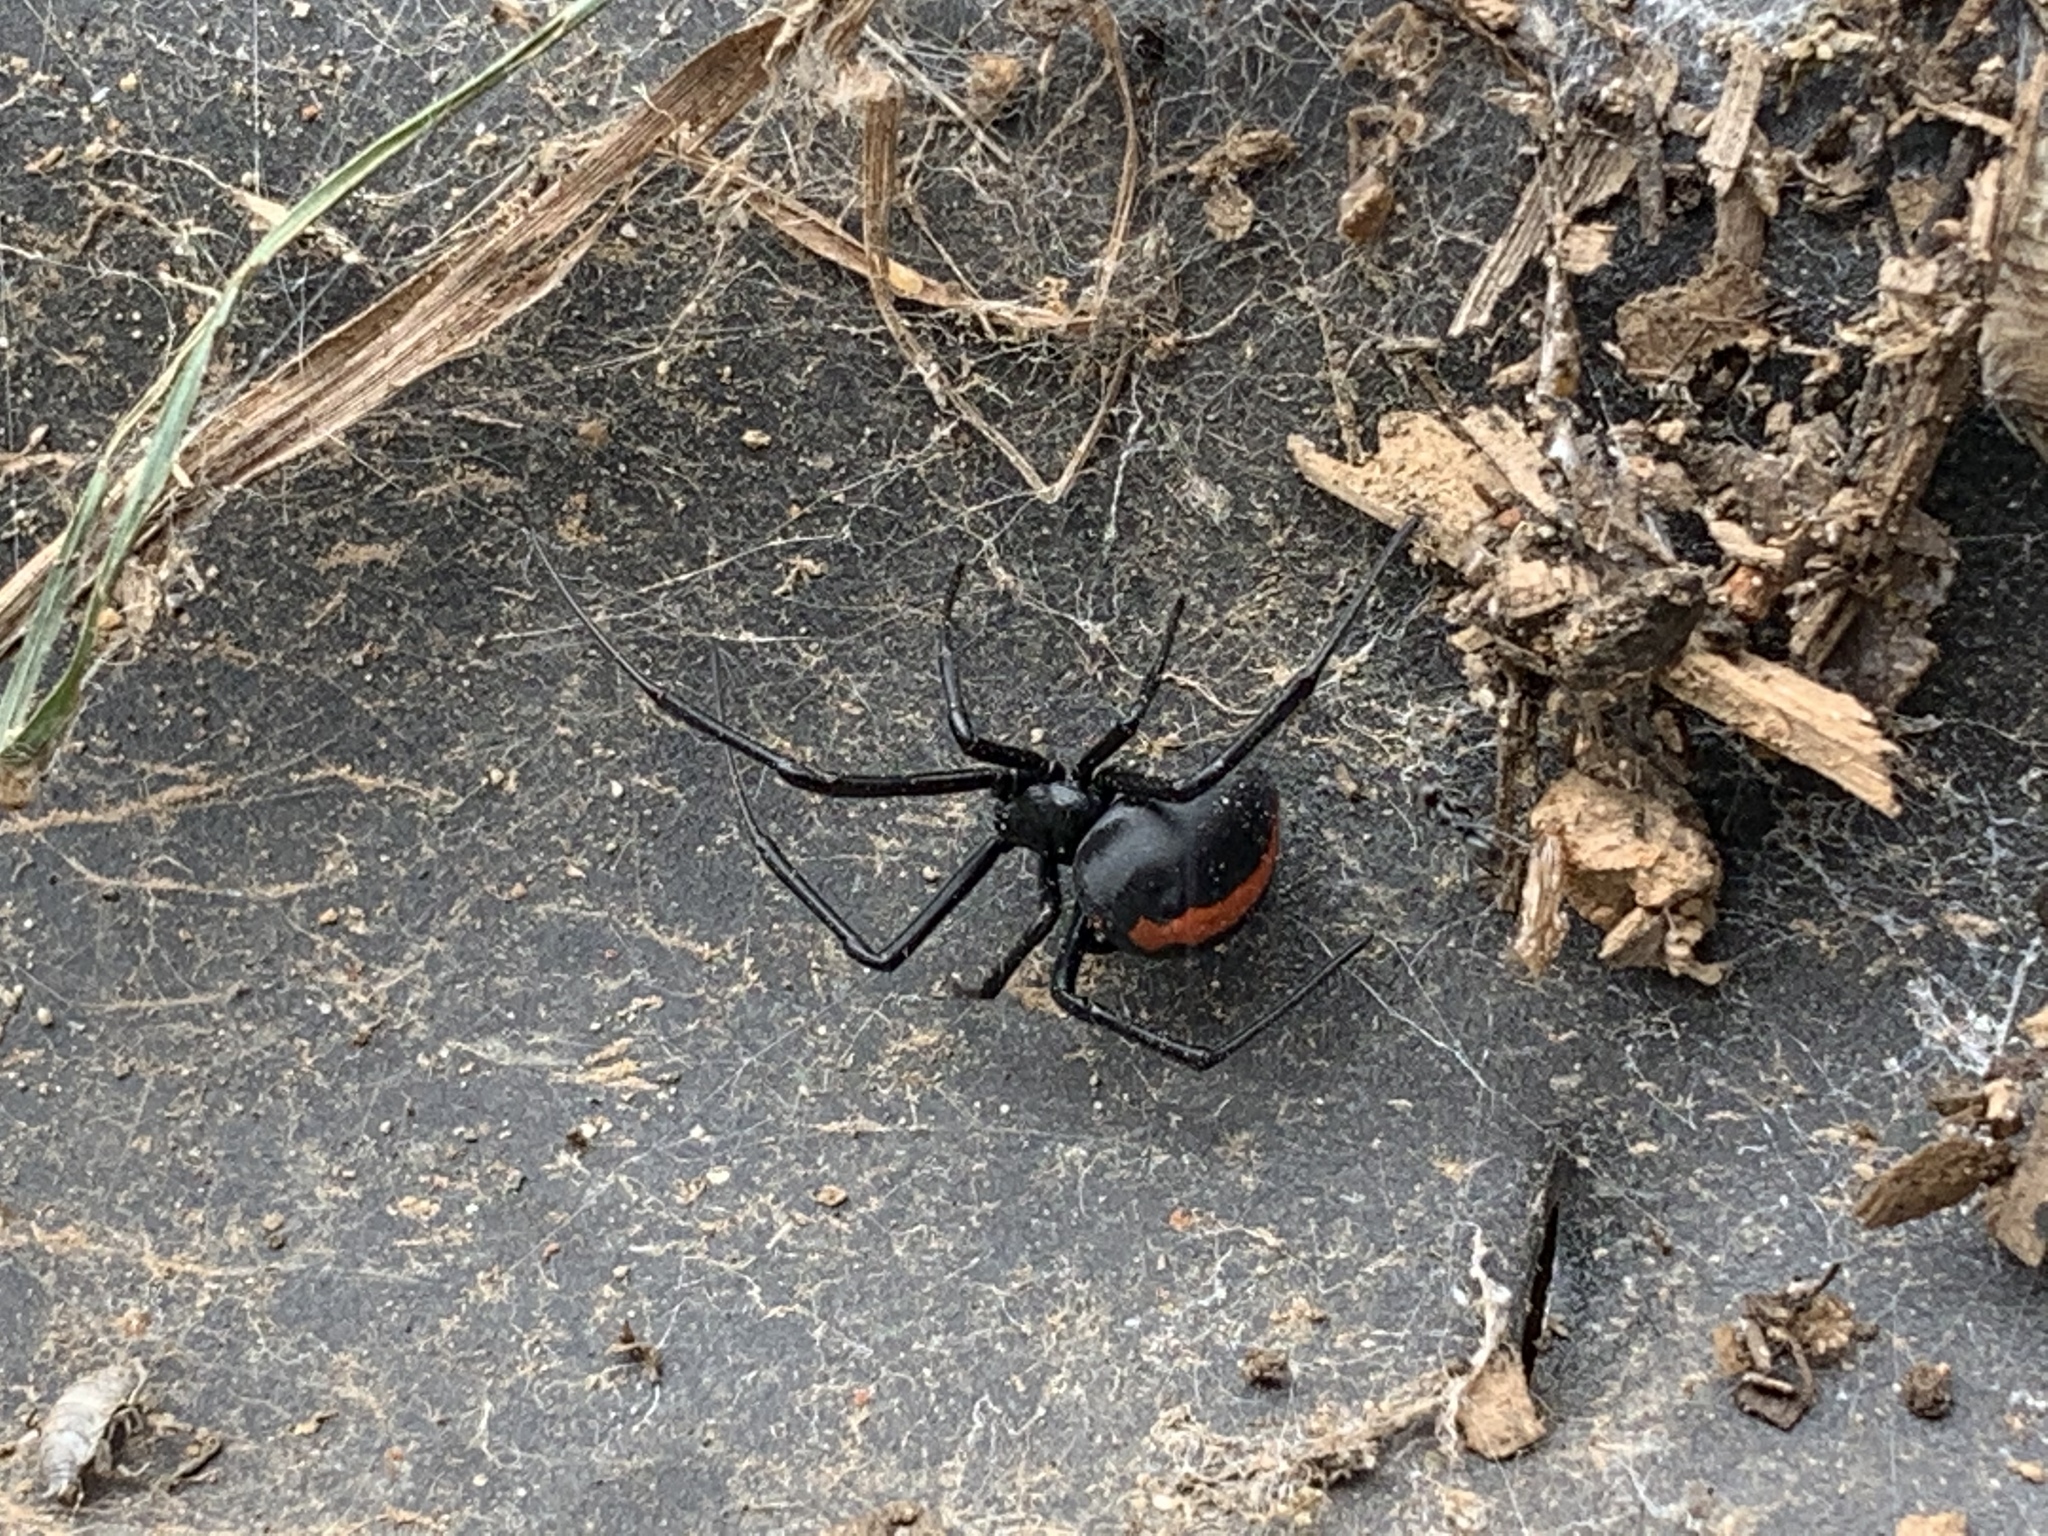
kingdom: Animalia
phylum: Arthropoda
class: Arachnida
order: Araneae
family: Theridiidae
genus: Latrodectus
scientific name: Latrodectus hasselti
